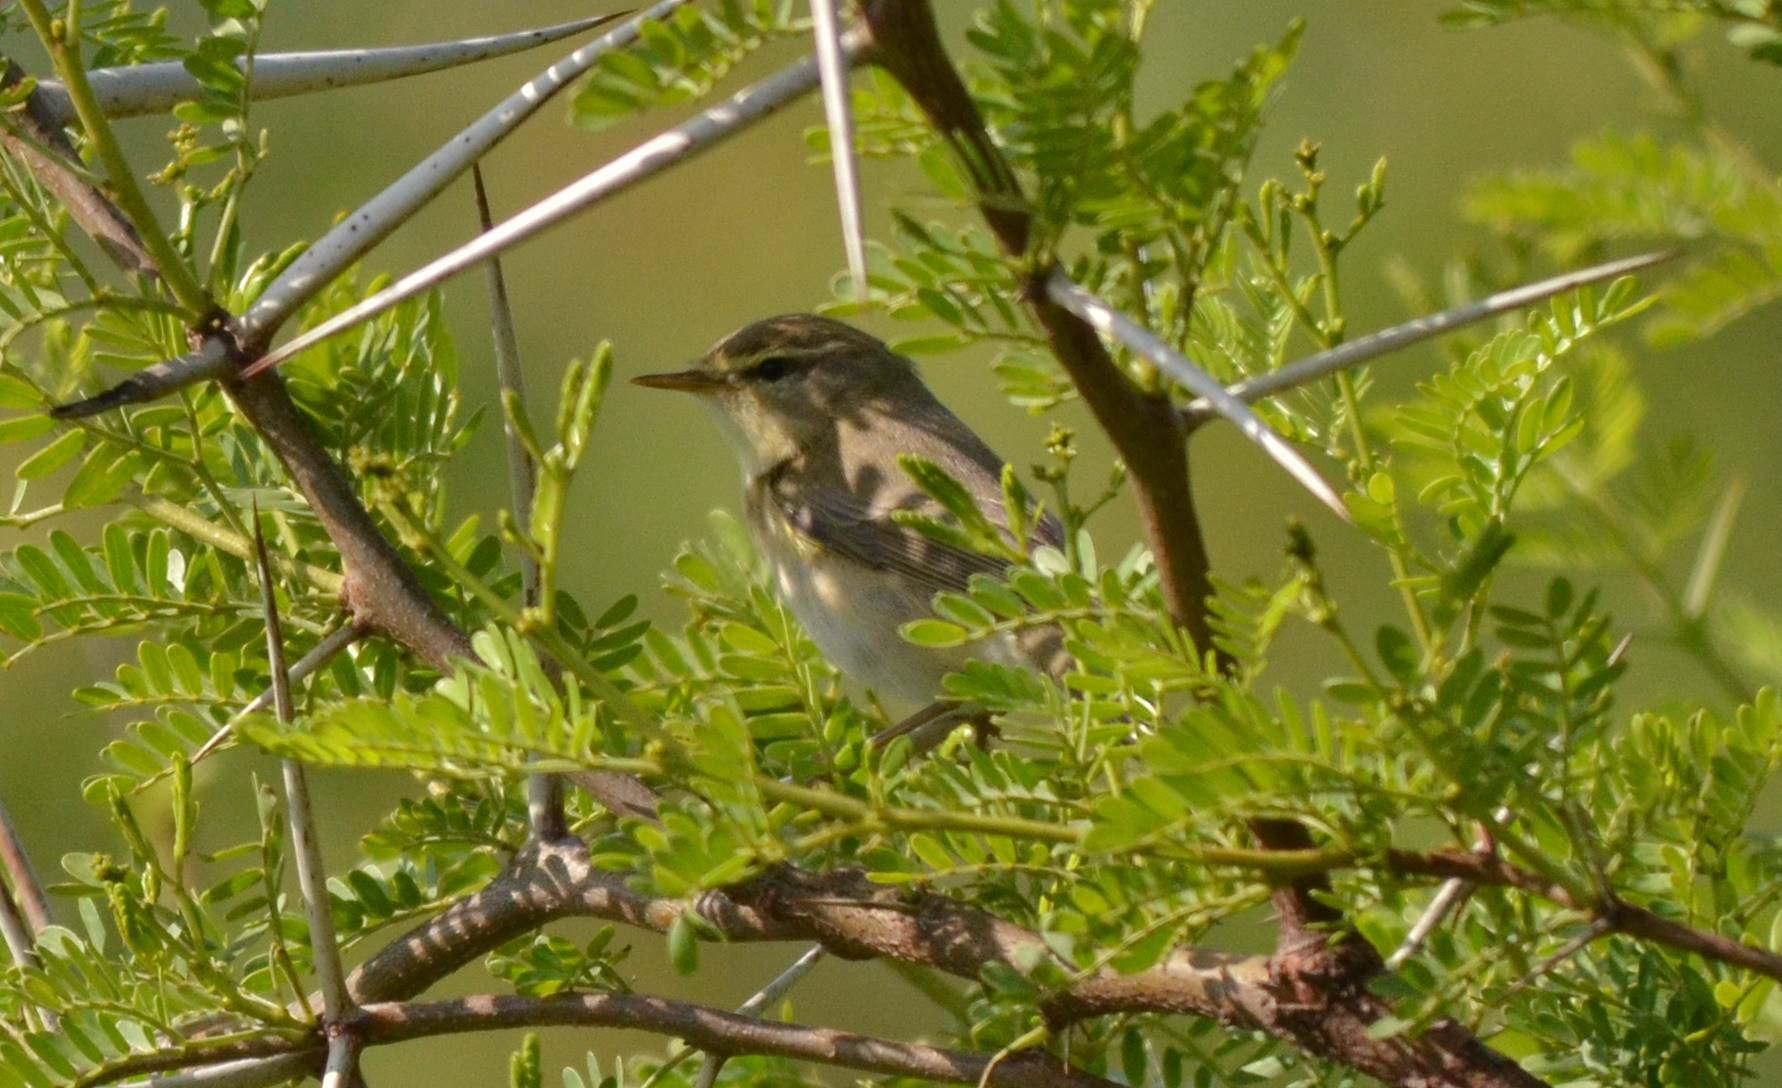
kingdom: Animalia
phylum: Chordata
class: Aves
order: Passeriformes
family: Phylloscopidae
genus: Phylloscopus
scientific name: Phylloscopus collybita
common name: Common chiffchaff
